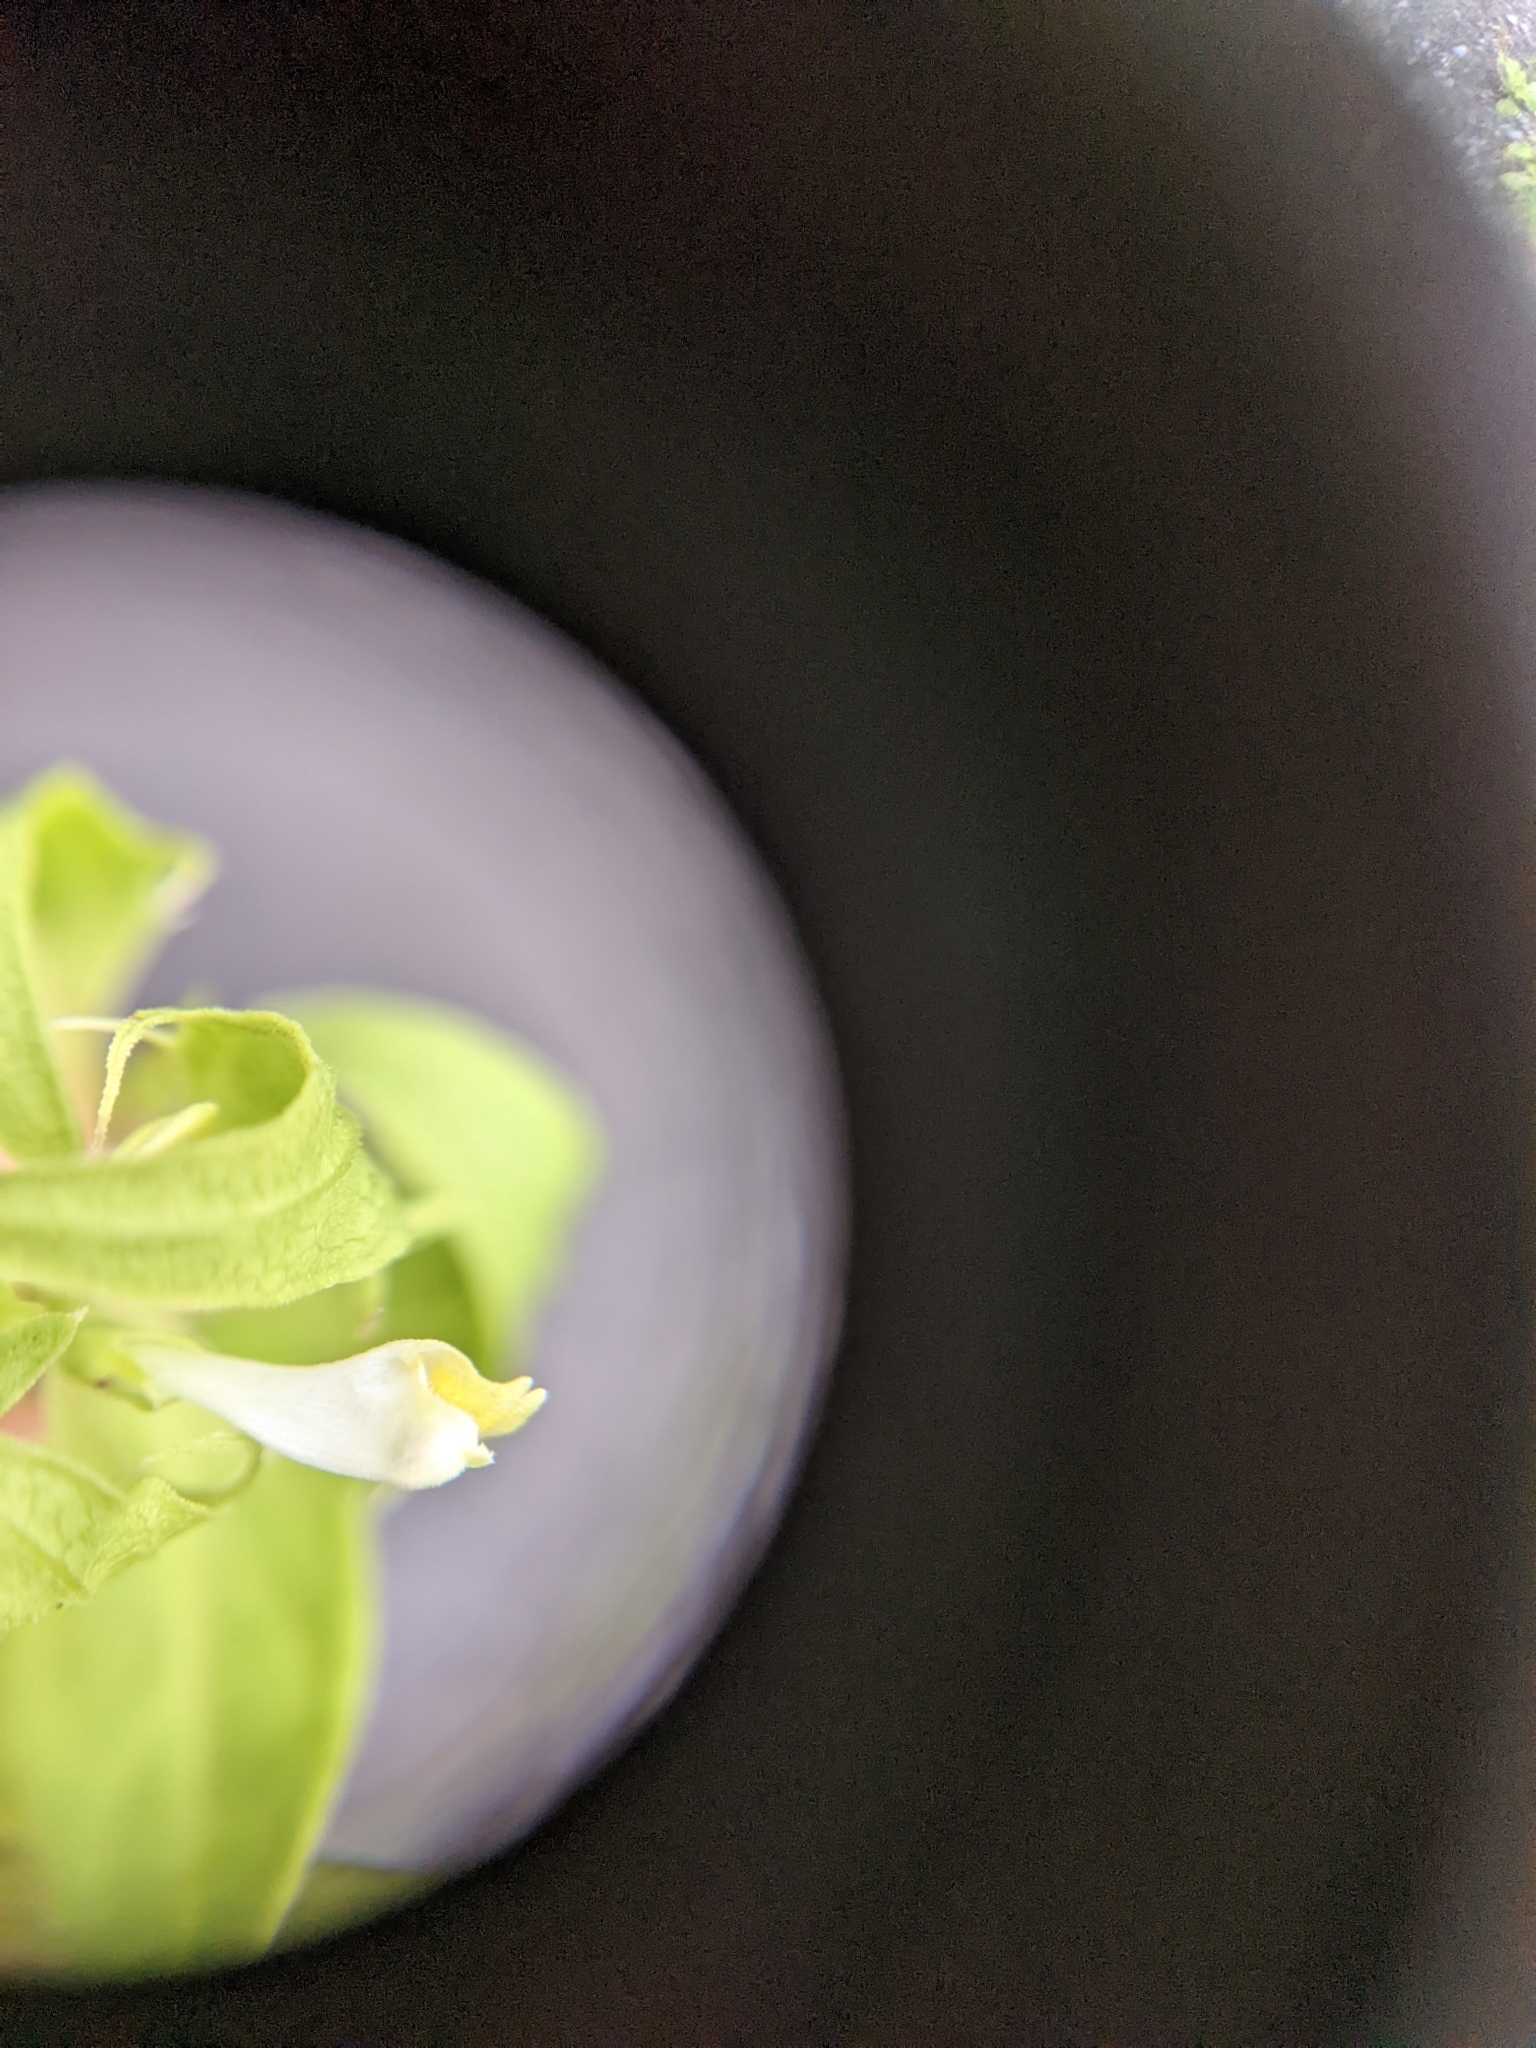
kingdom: Plantae
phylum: Tracheophyta
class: Magnoliopsida
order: Lamiales
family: Orobanchaceae
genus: Melampyrum
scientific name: Melampyrum lineare
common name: American cow-wheat
